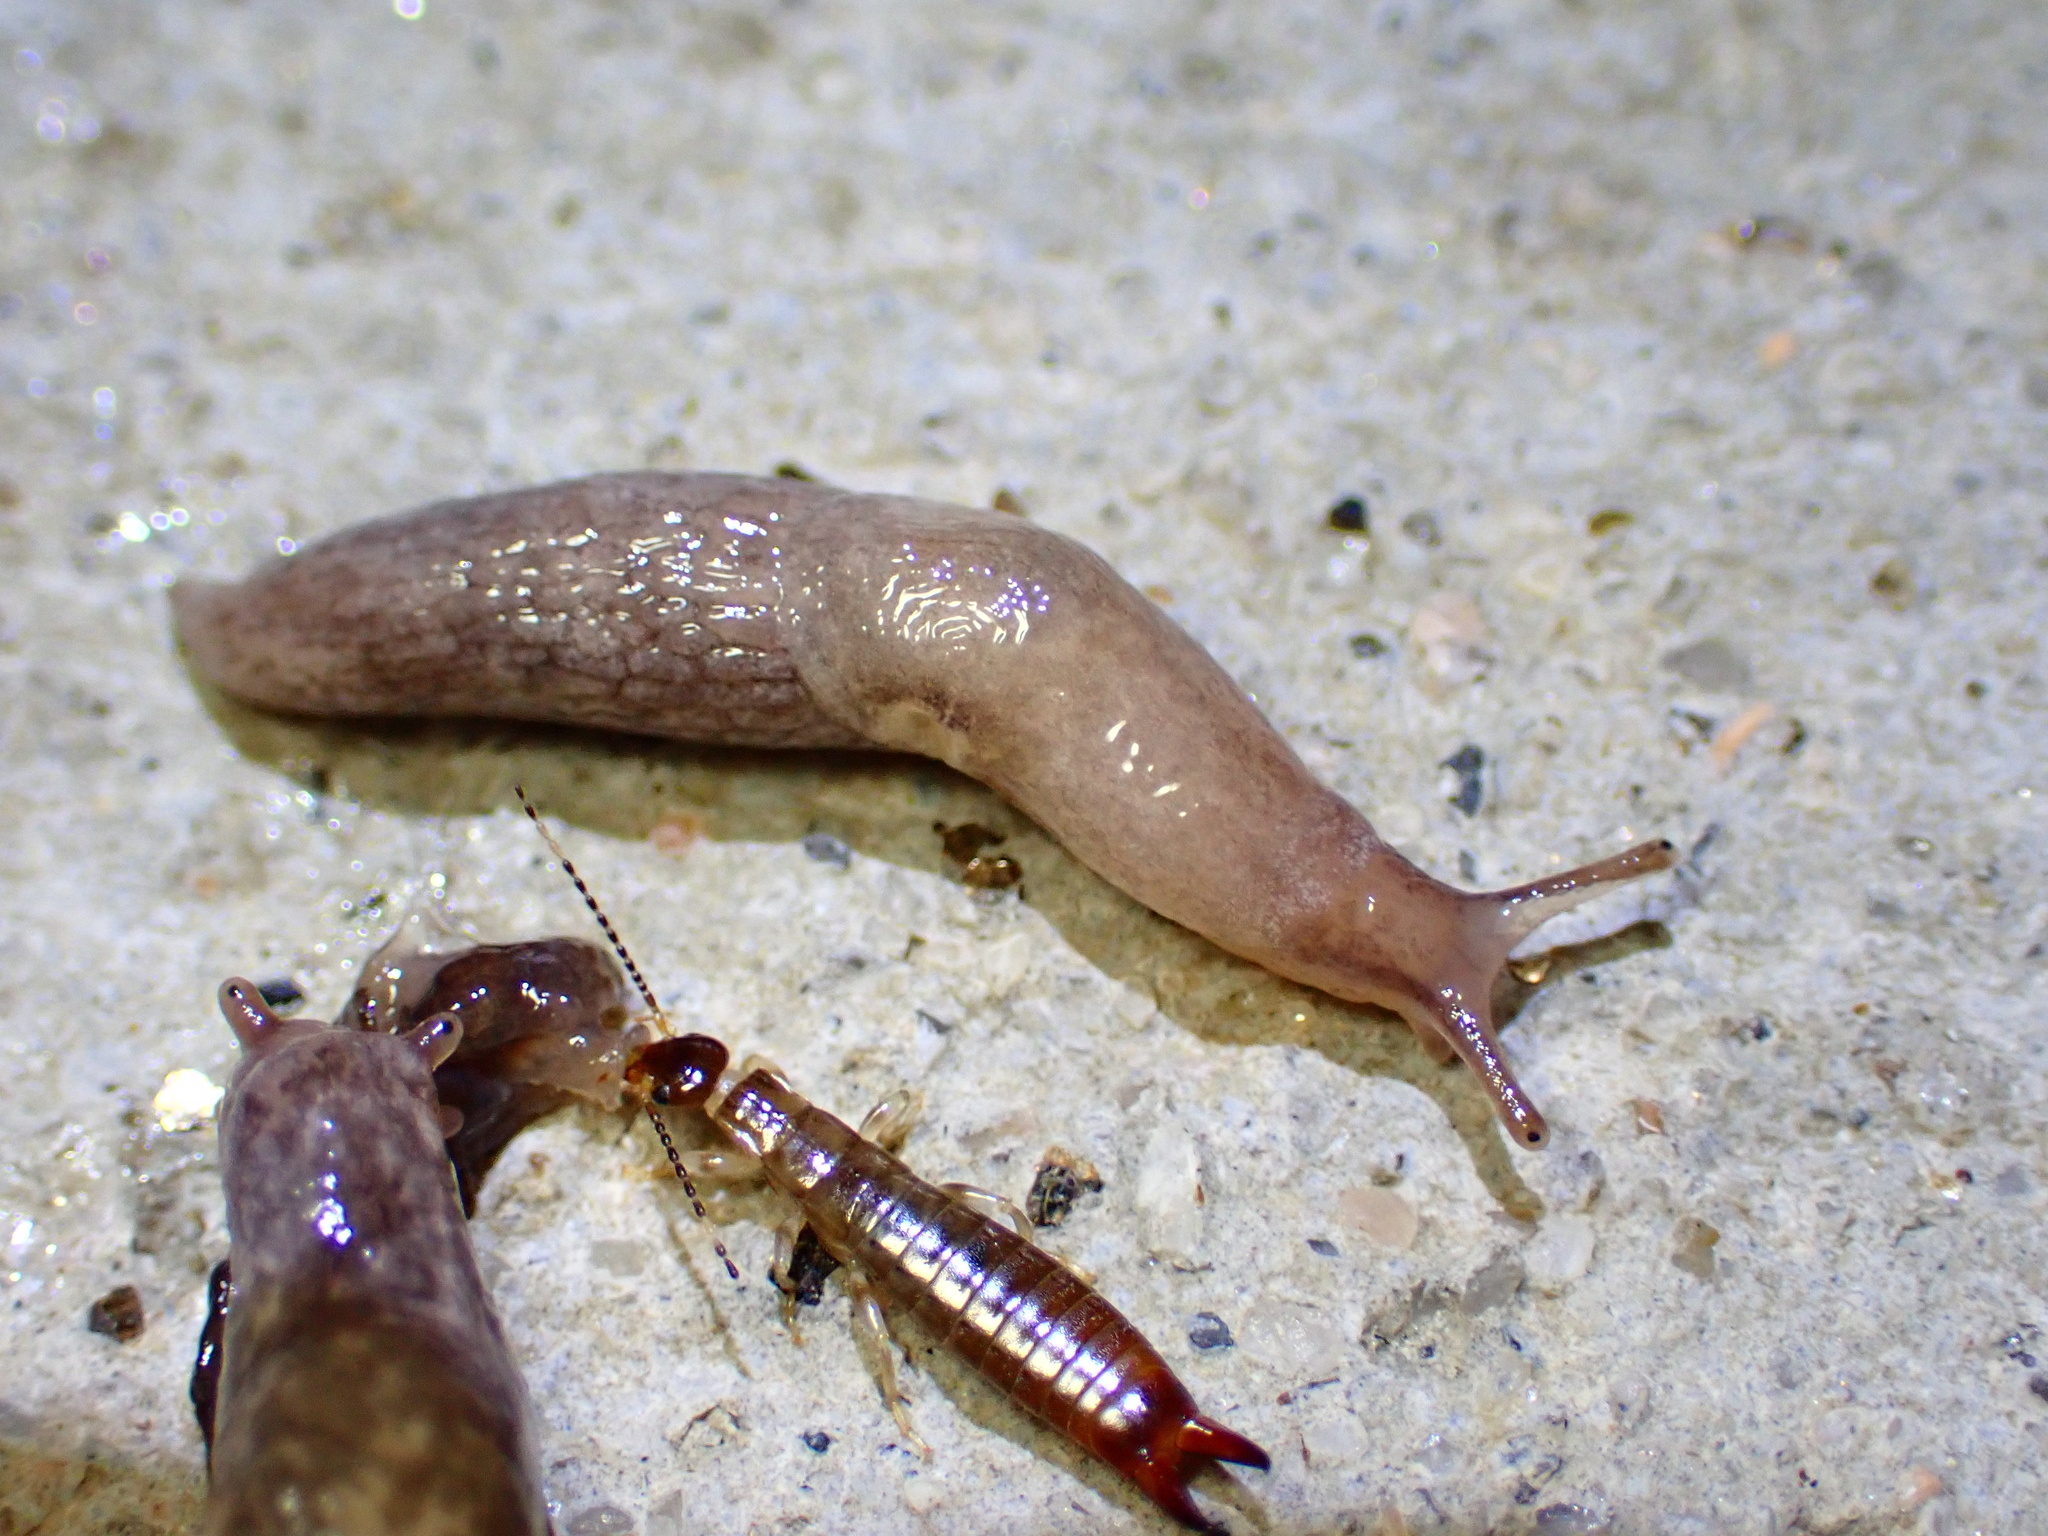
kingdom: Animalia
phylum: Mollusca
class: Gastropoda
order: Stylommatophora
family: Agriolimacidae
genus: Deroceras
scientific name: Deroceras reticulatum
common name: Gray field slug
